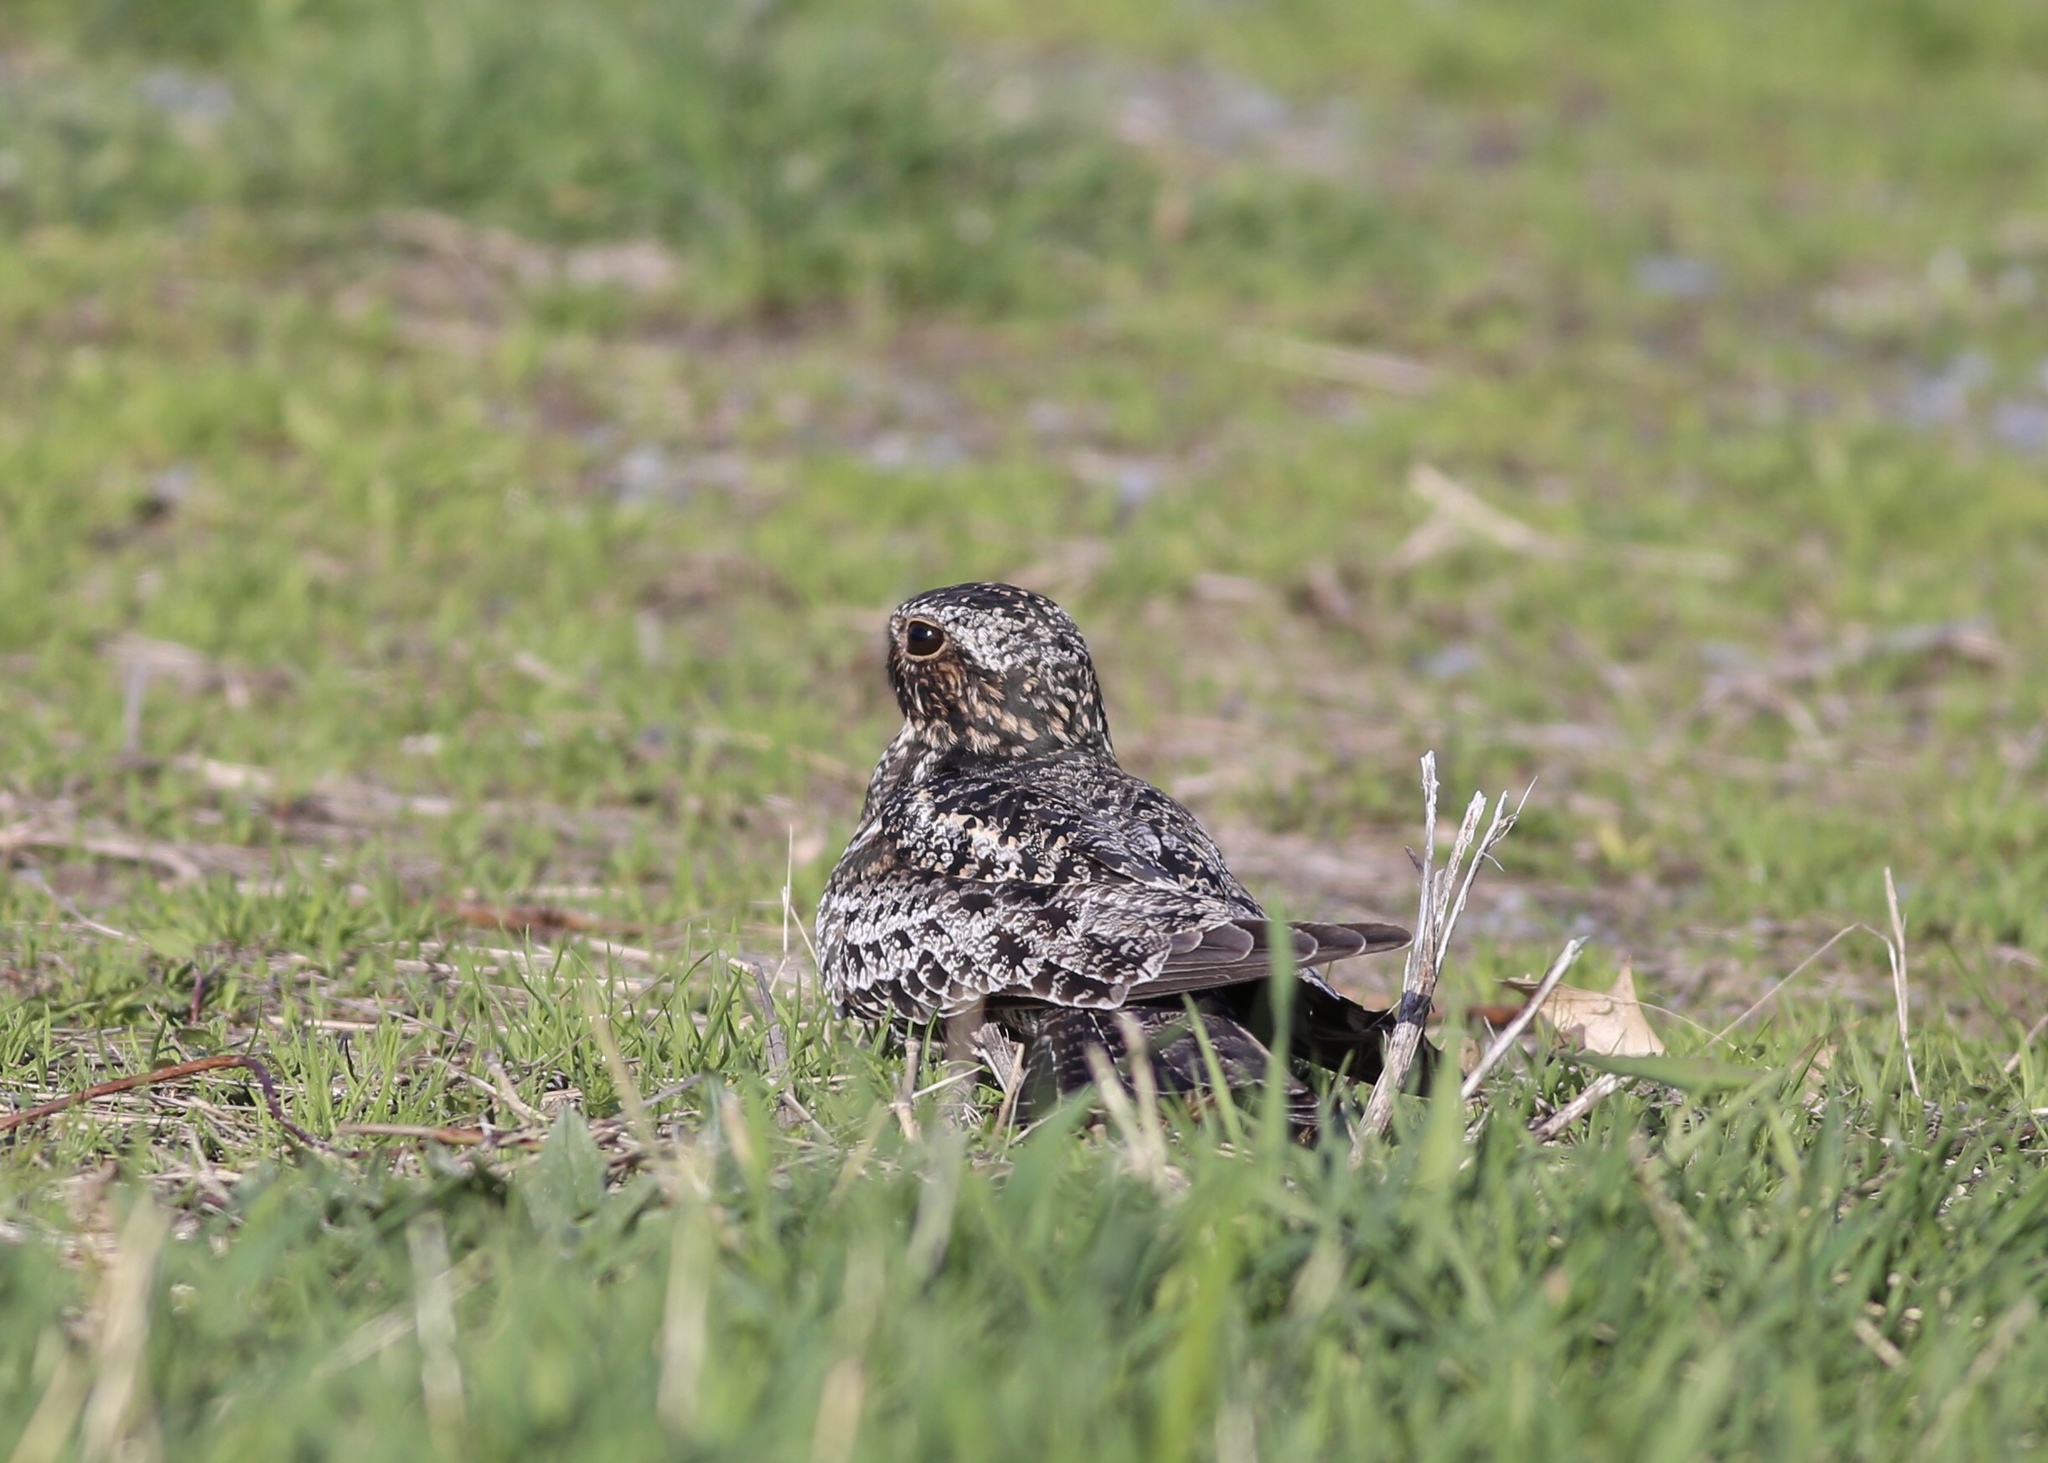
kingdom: Animalia
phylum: Chordata
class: Aves
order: Caprimulgiformes
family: Caprimulgidae
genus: Chordeiles
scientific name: Chordeiles minor
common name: Common nighthawk
